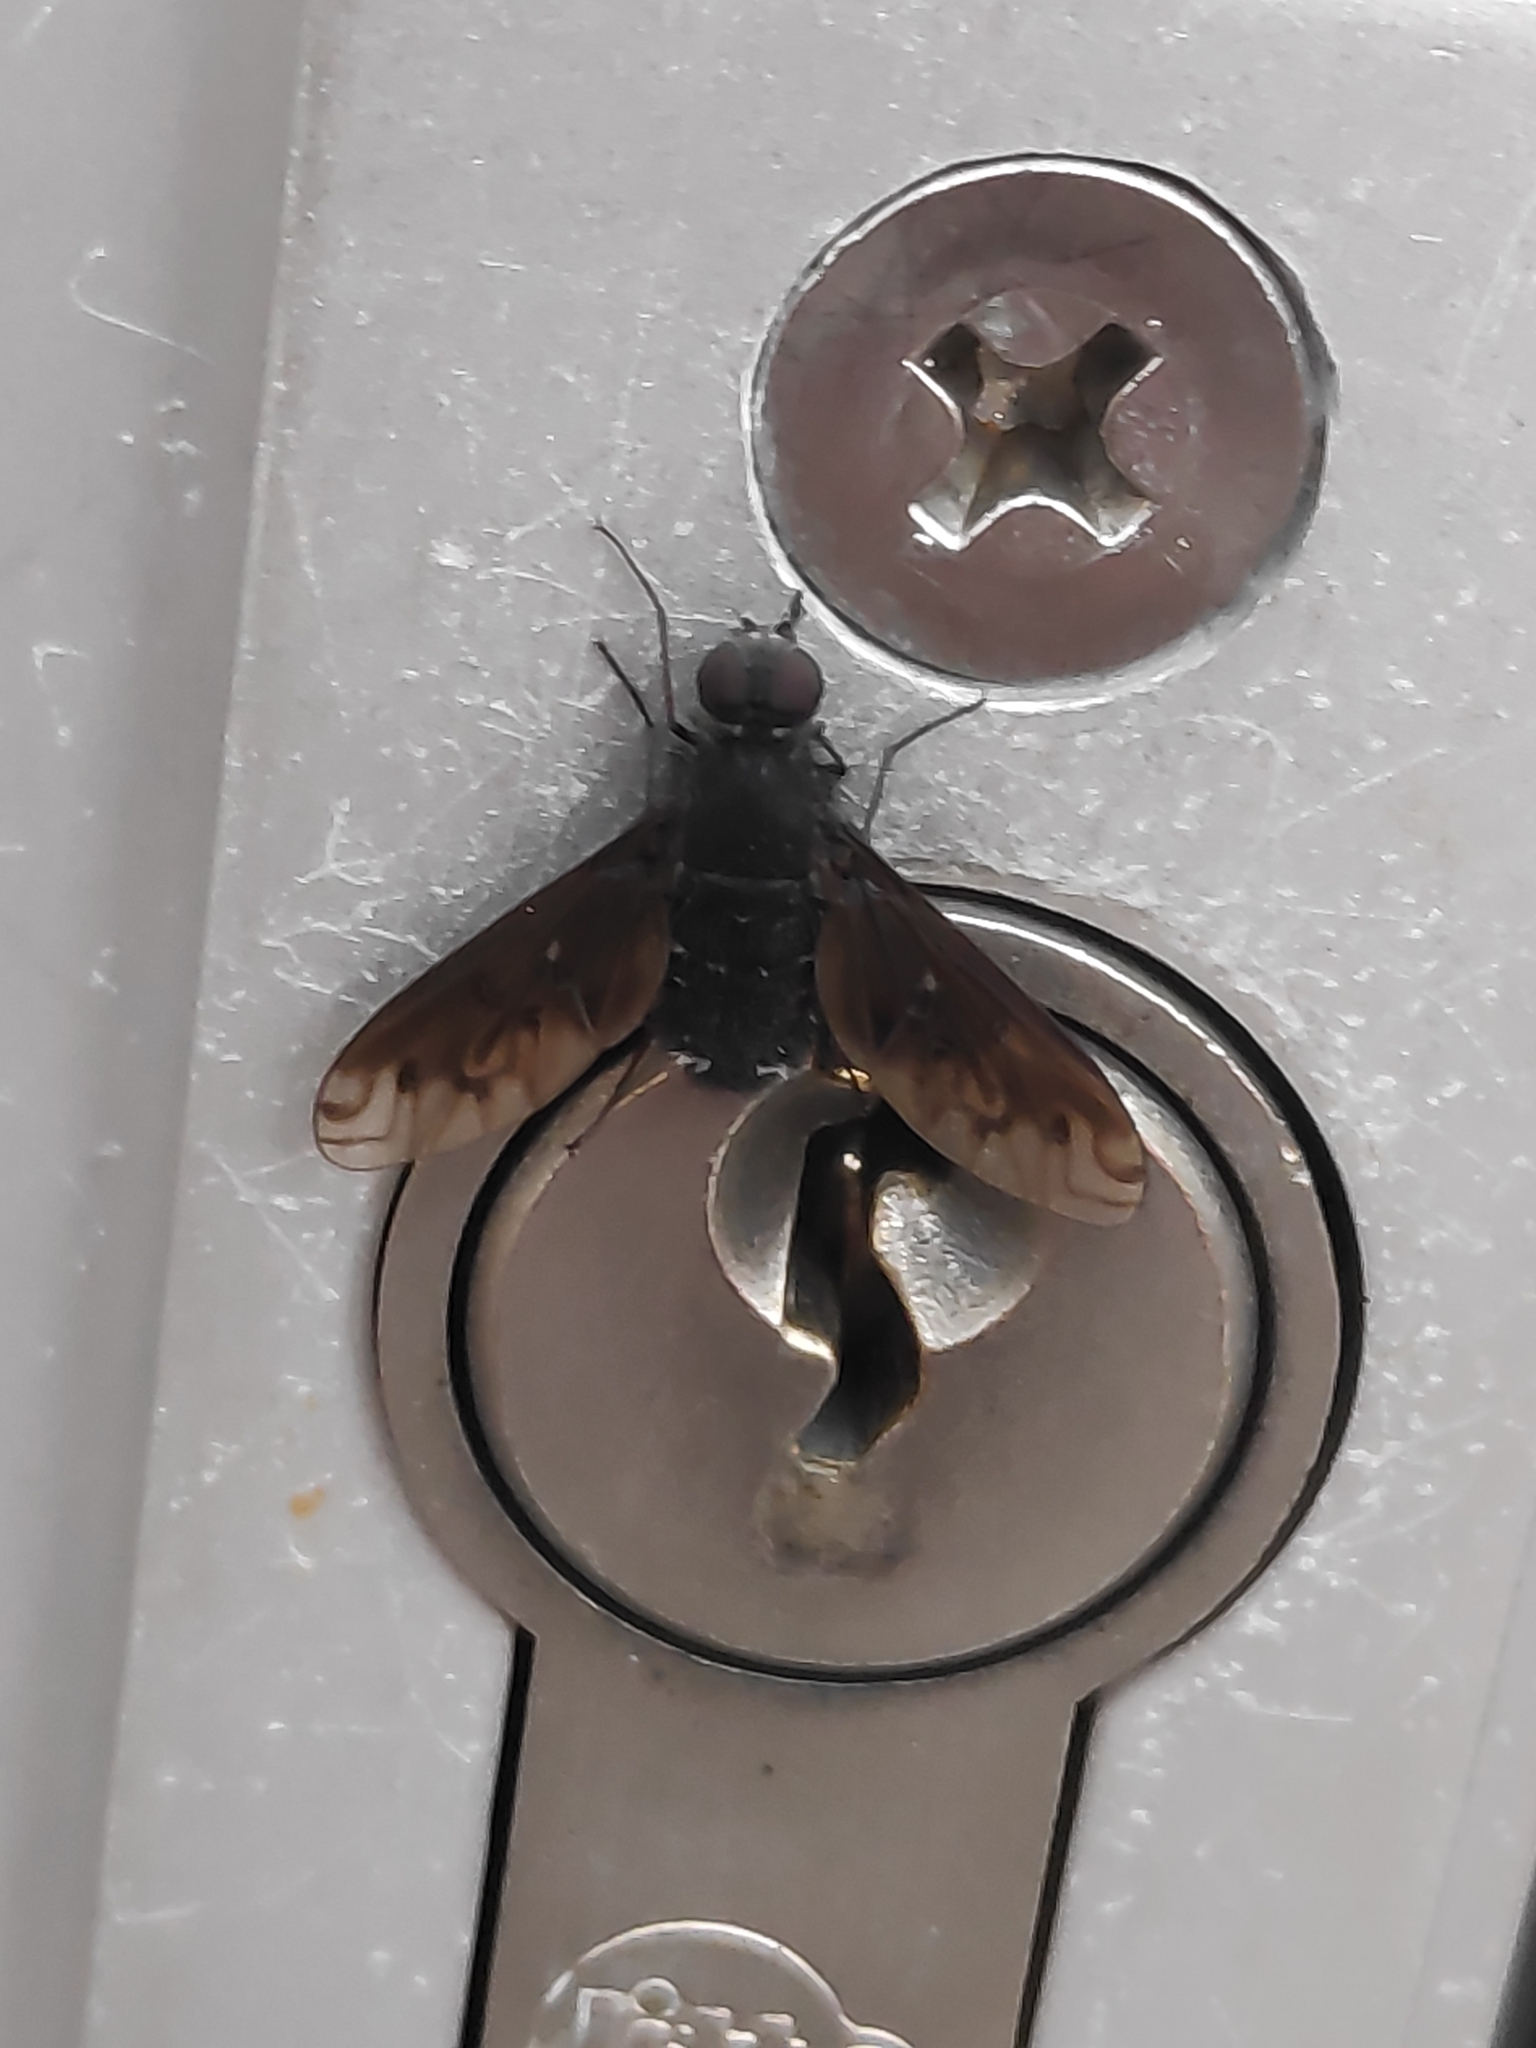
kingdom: Animalia
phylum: Arthropoda
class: Insecta
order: Diptera
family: Bombyliidae
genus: Anthrax
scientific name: Anthrax anthrax
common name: Anthracite bee-fly
